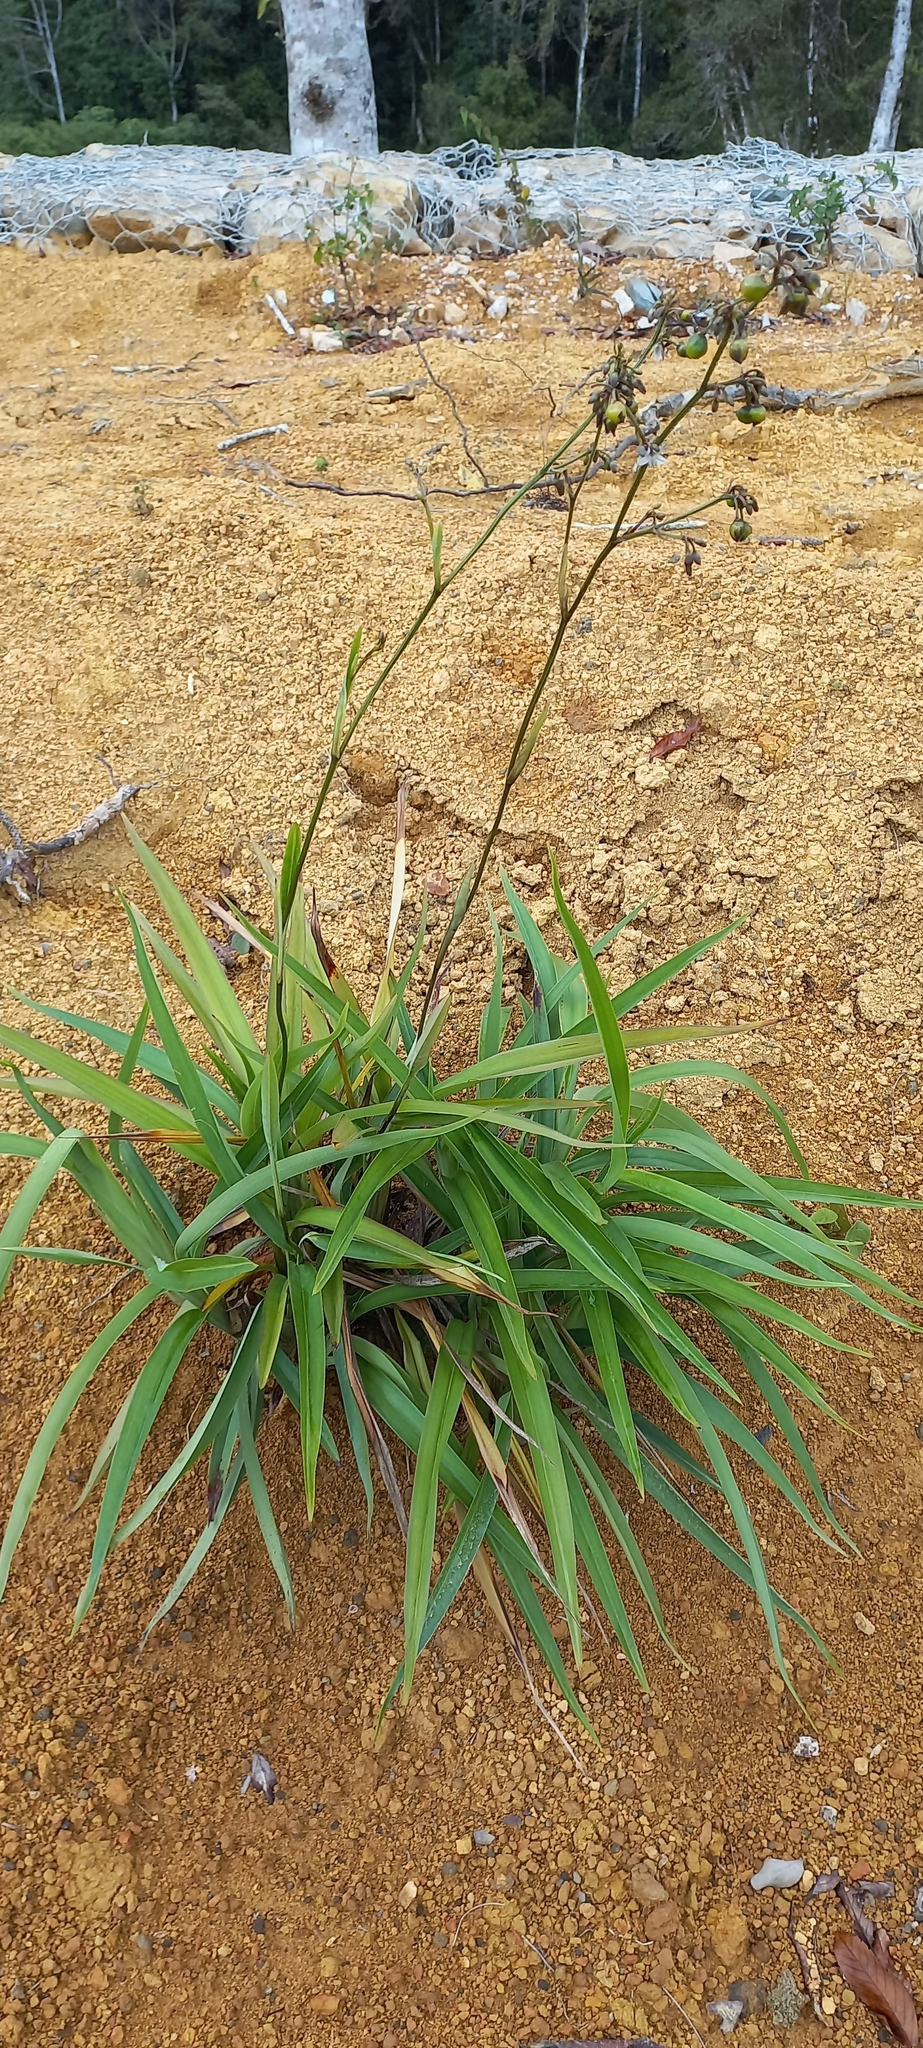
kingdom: Plantae
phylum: Tracheophyta
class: Liliopsida
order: Asparagales
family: Asphodelaceae
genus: Dianella
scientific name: Dianella ensifolia
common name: New zealand lilyplant
